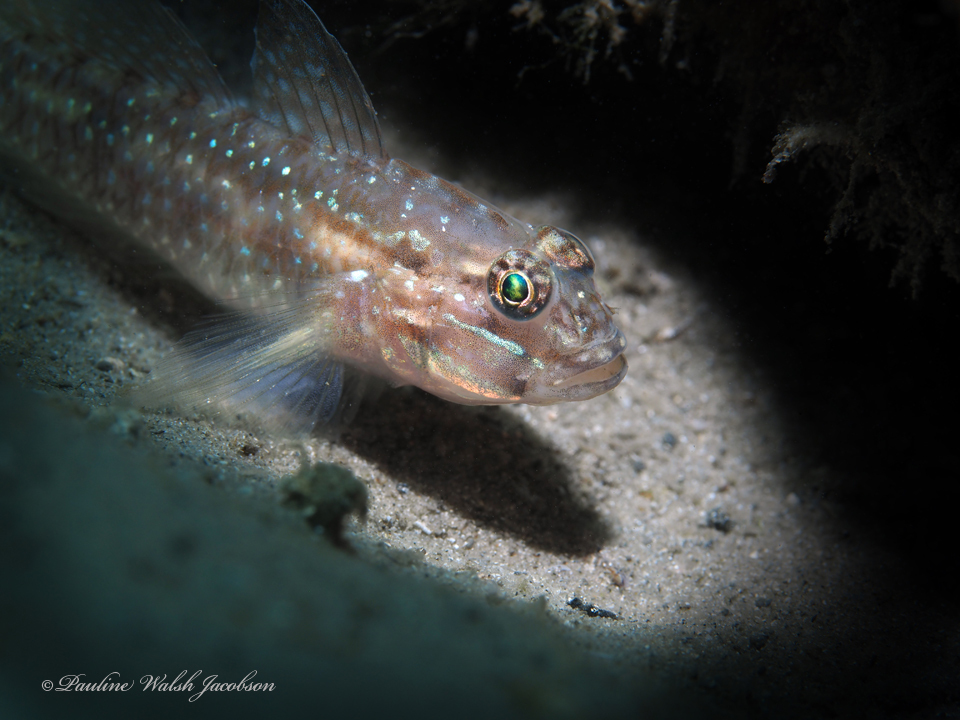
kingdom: Animalia
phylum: Chordata
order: Perciformes
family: Gobiidae
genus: Coryphopterus
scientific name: Coryphopterus glaucofraenum
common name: Bridled goby
